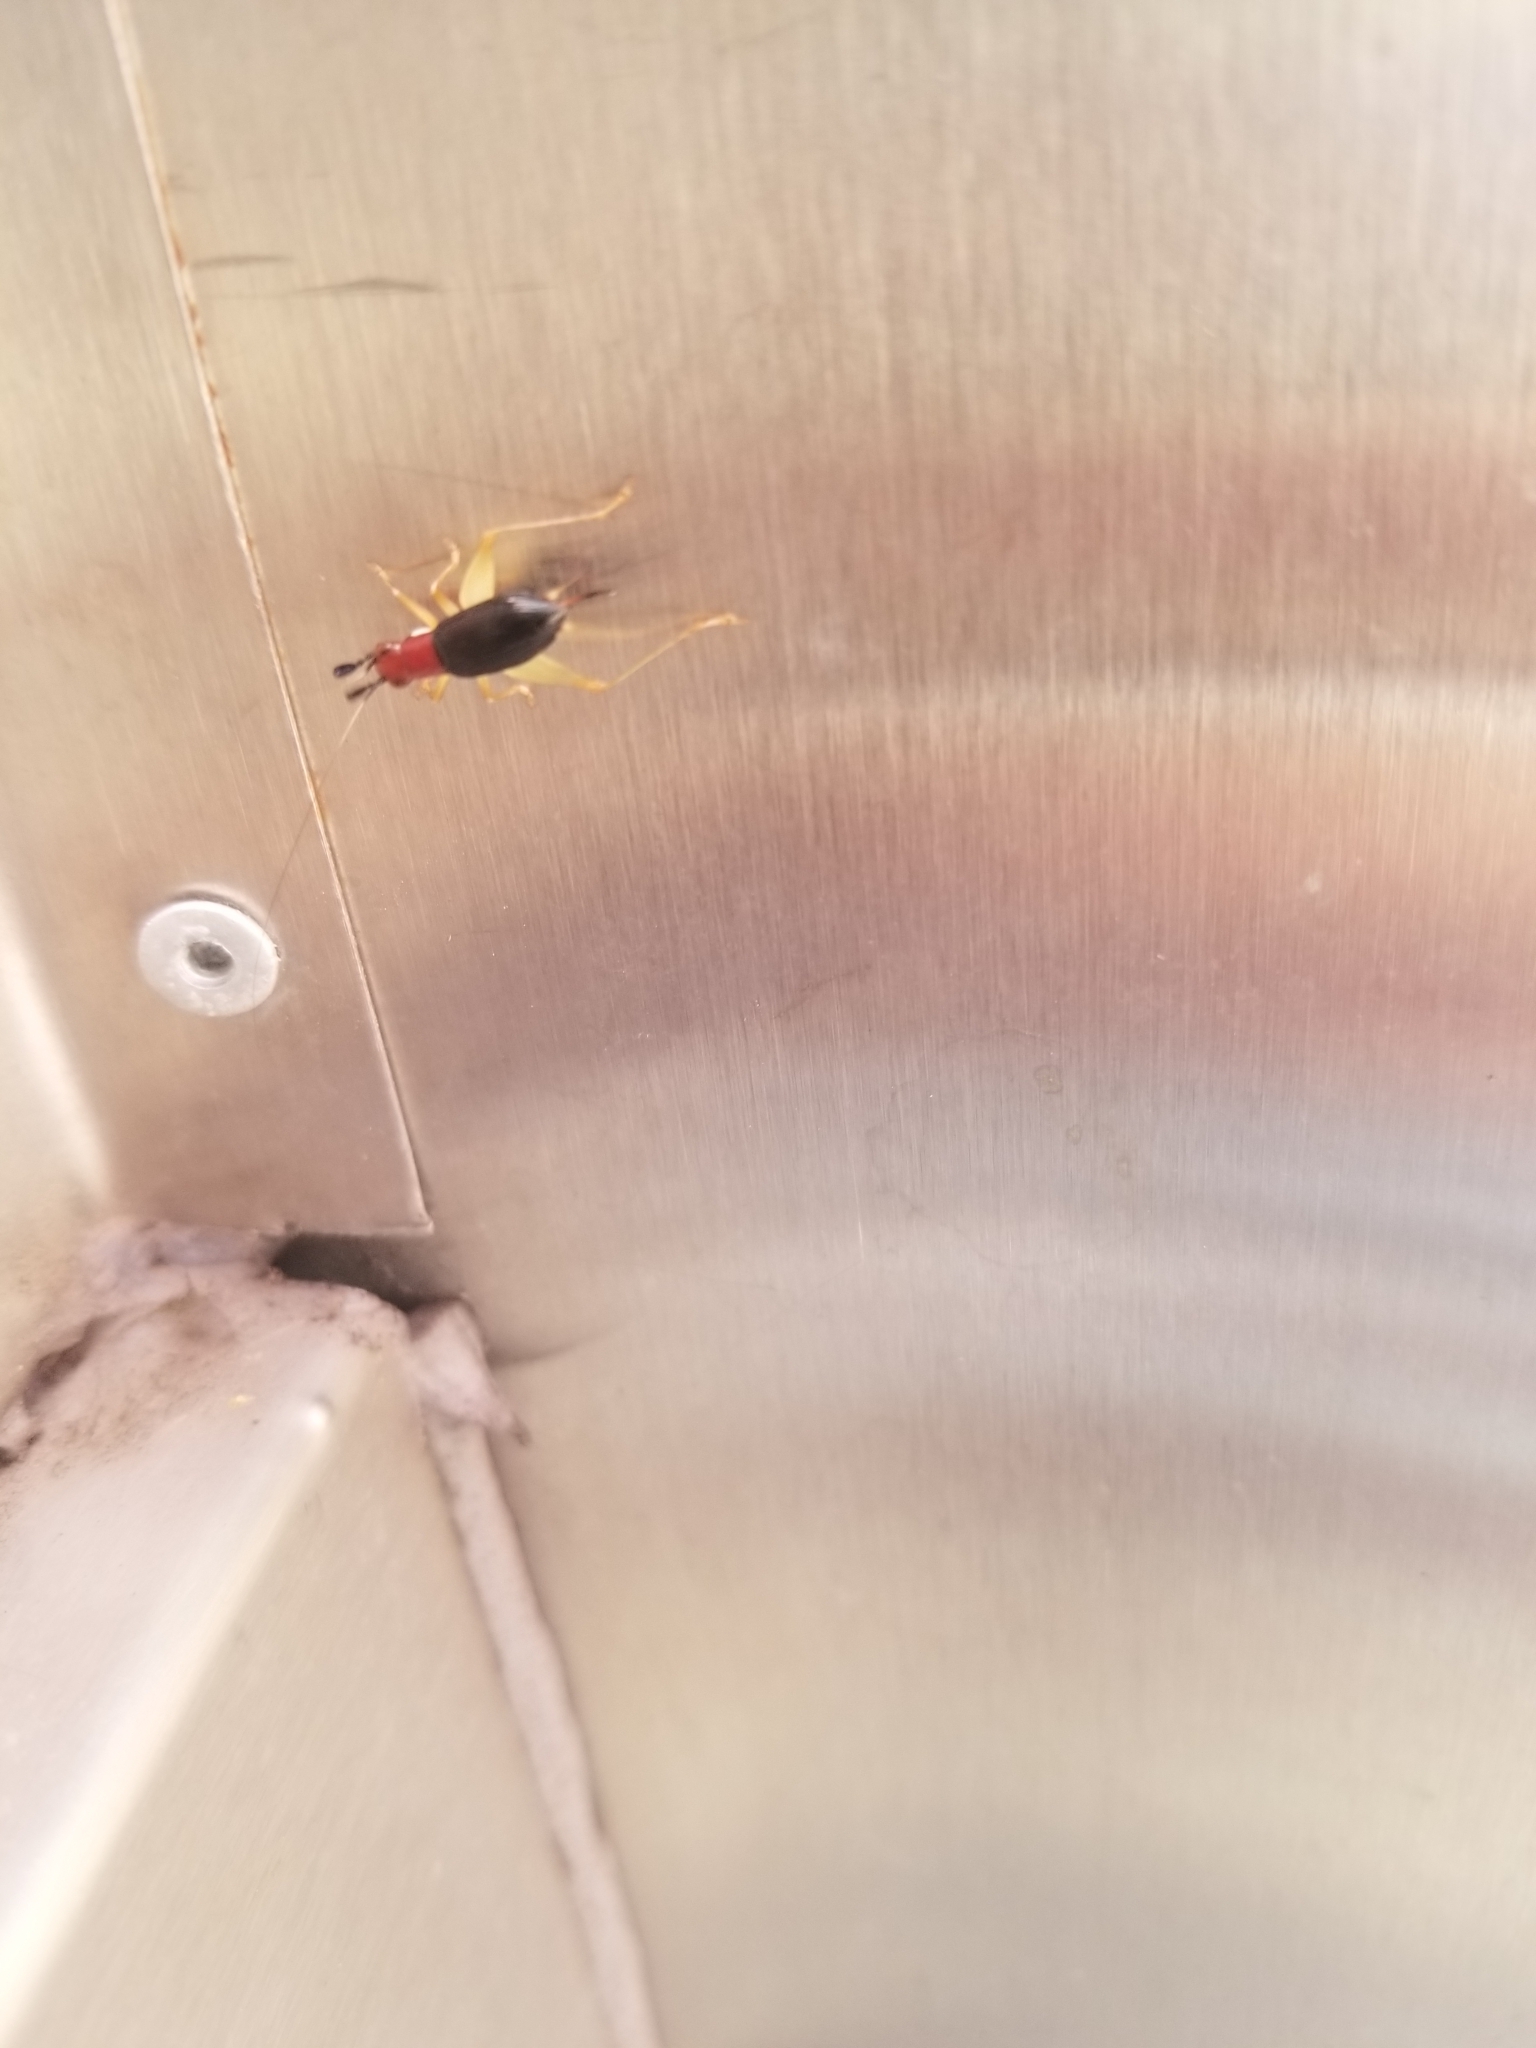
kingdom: Animalia
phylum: Arthropoda
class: Insecta
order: Orthoptera
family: Trigonidiidae
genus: Phyllopalpus
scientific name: Phyllopalpus pulchellus
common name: Handsome trig
